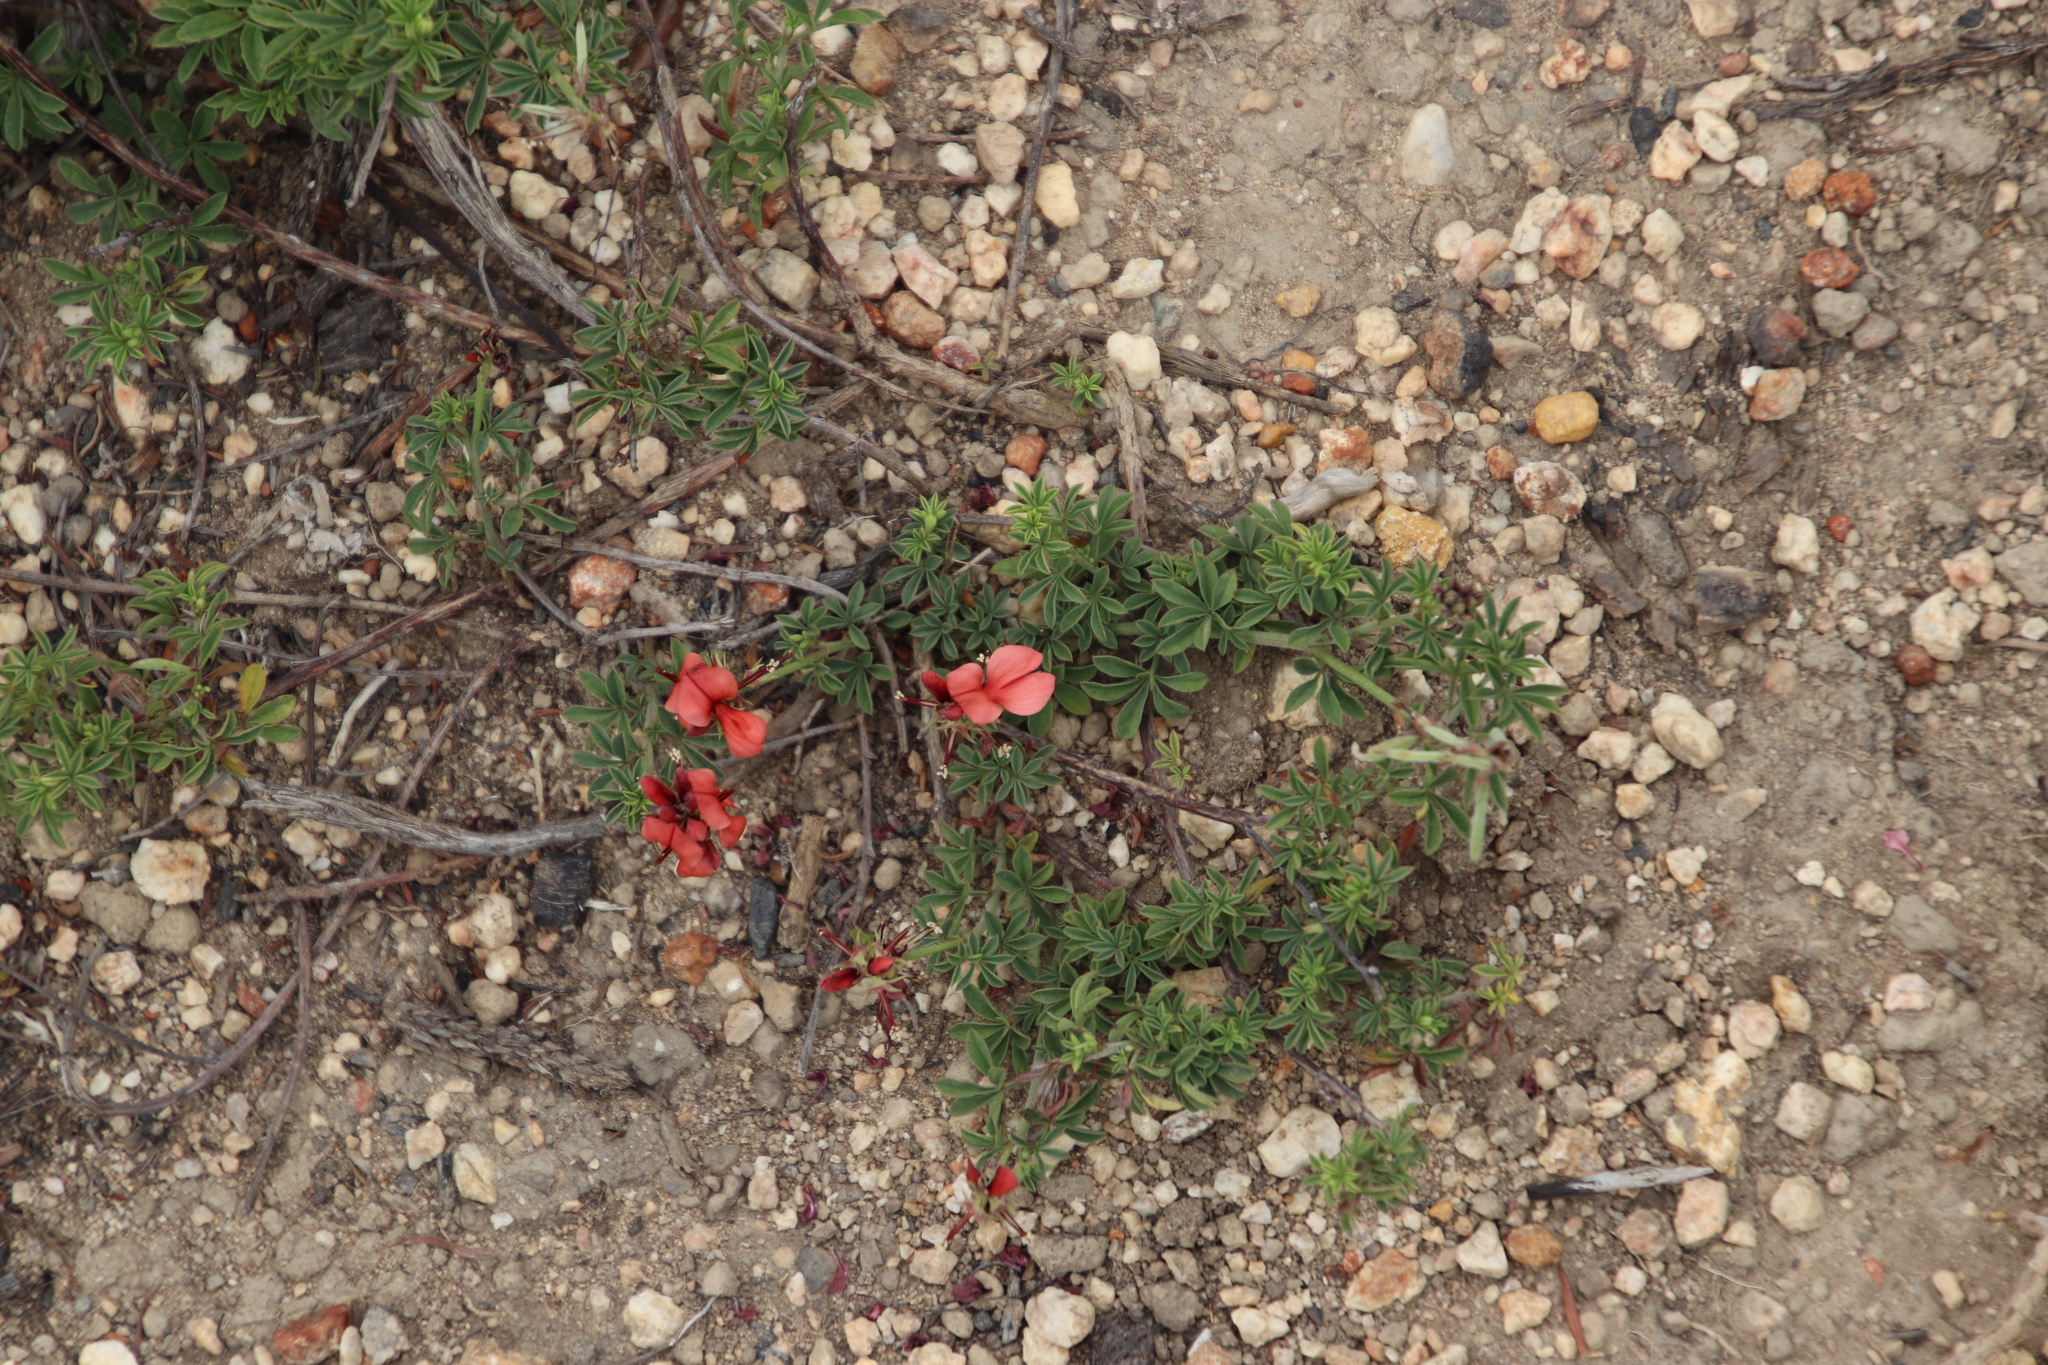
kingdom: Plantae
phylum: Tracheophyta
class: Magnoliopsida
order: Fabales
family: Fabaceae
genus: Indigofera
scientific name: Indigofera digitata
